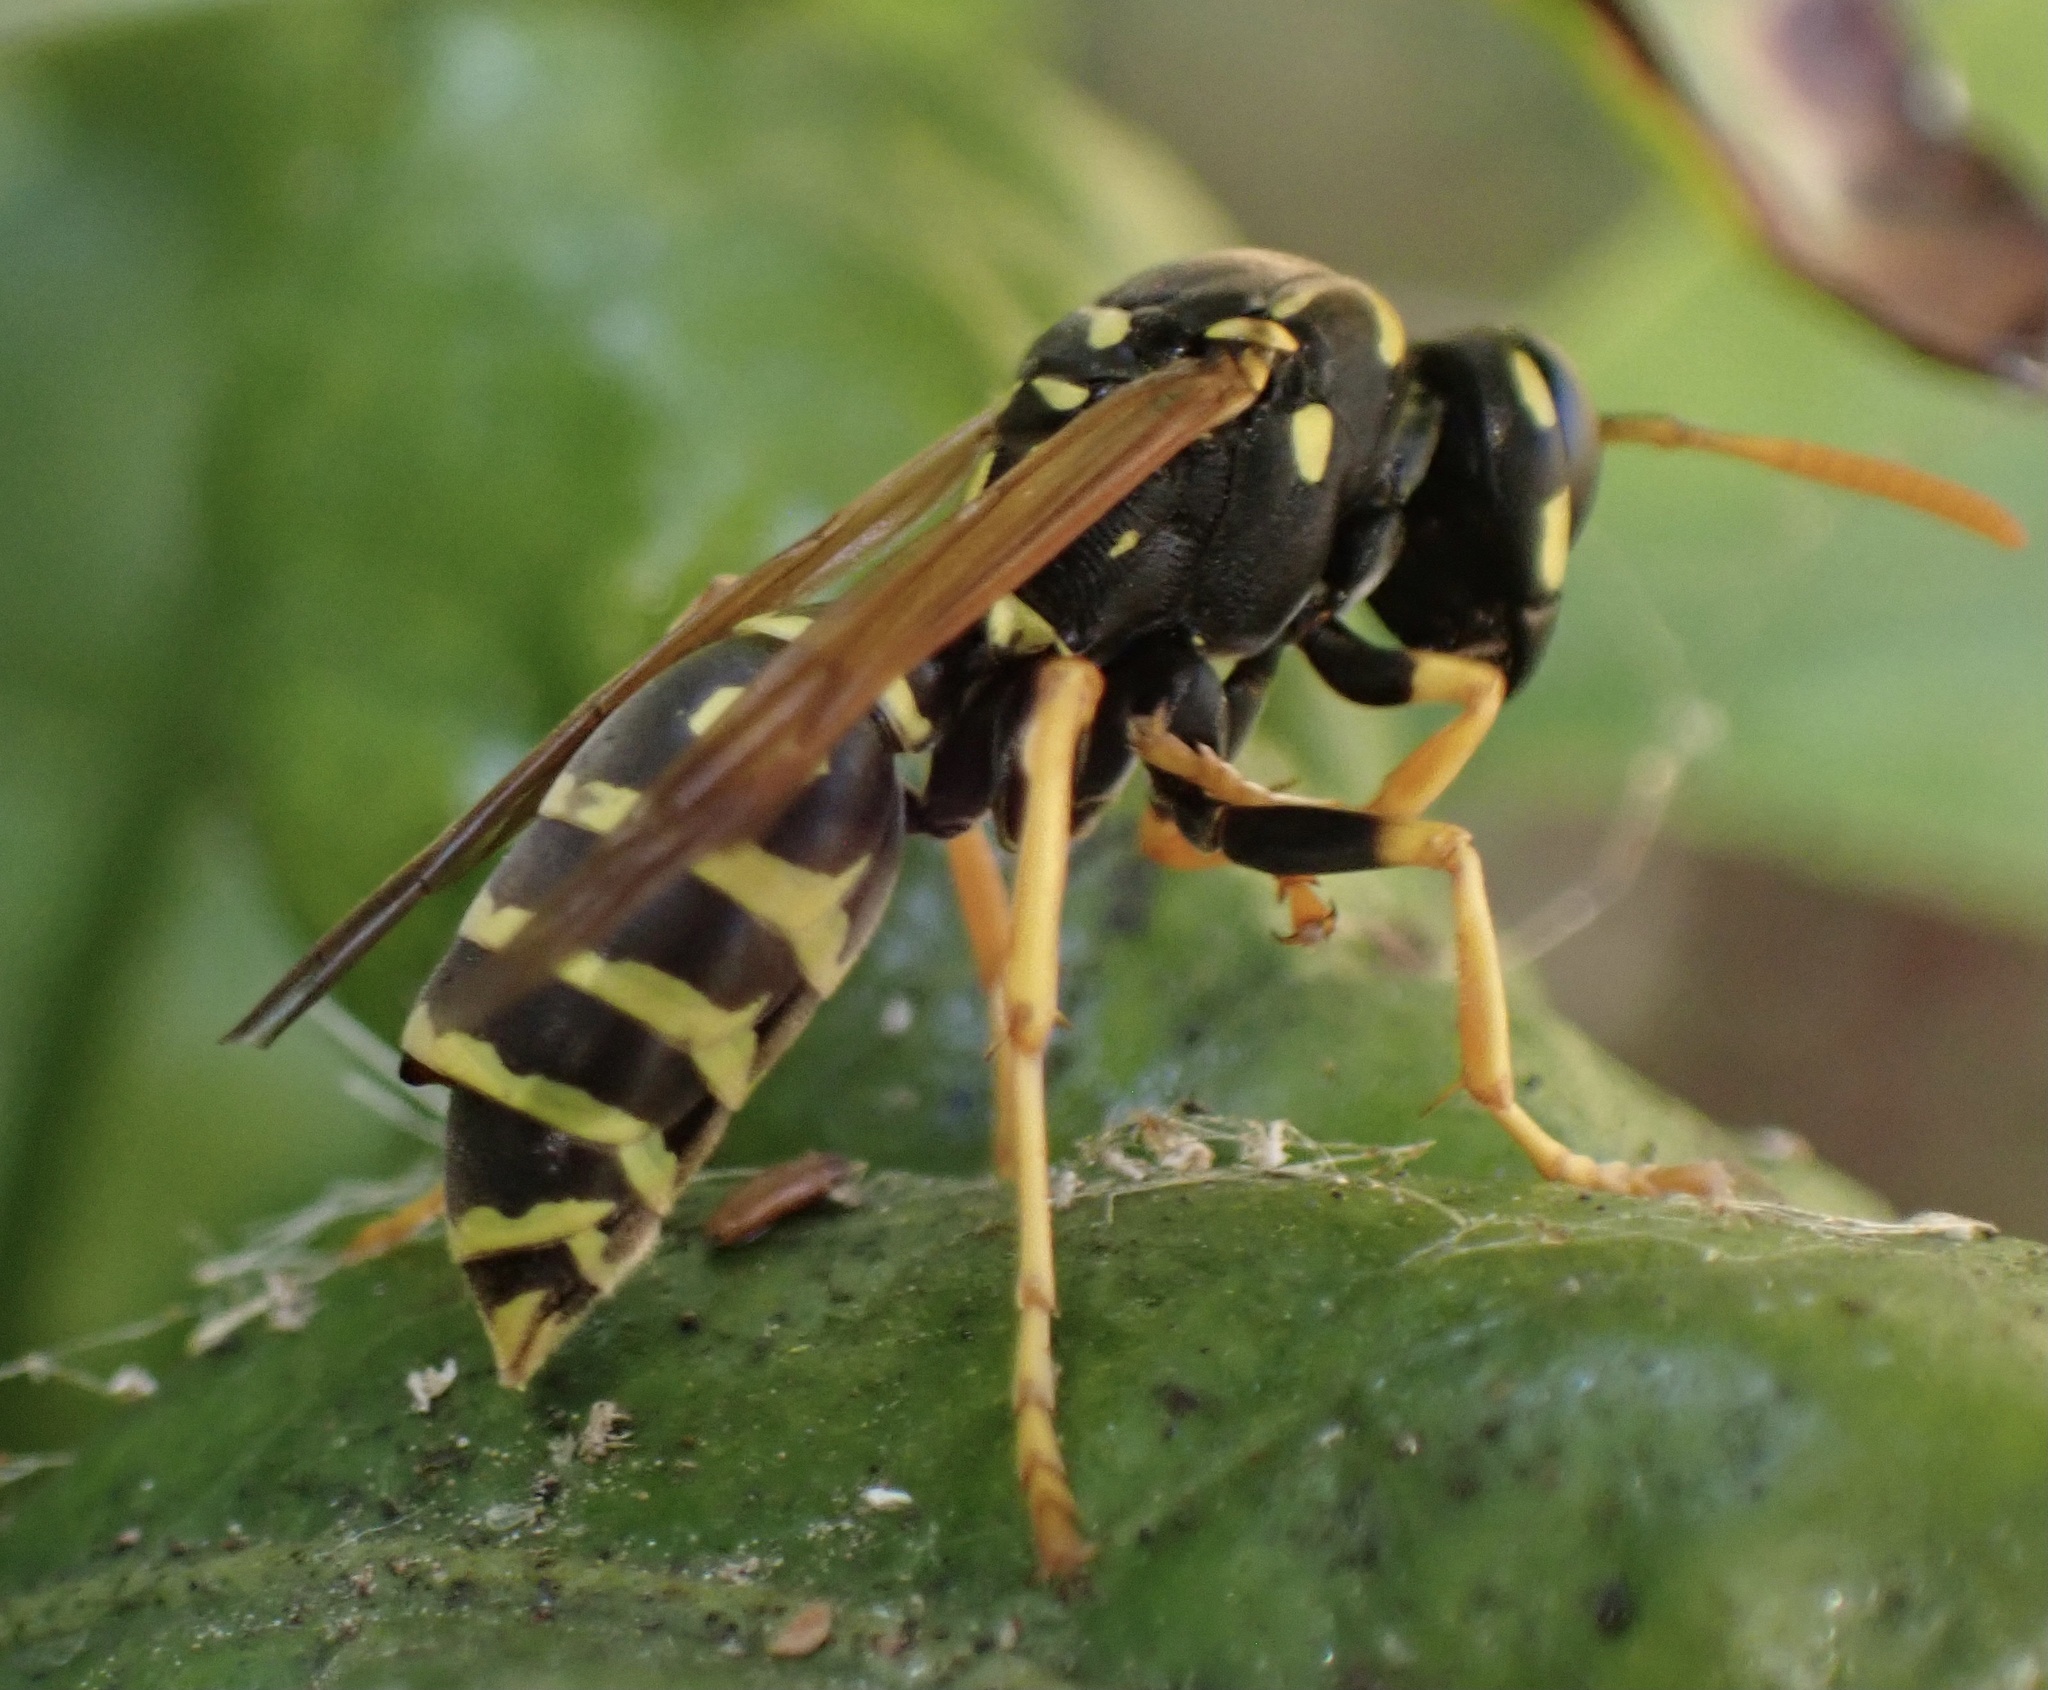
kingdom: Animalia
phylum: Arthropoda
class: Insecta
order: Hymenoptera
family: Eumenidae
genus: Polistes
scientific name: Polistes dominula
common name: Paper wasp
